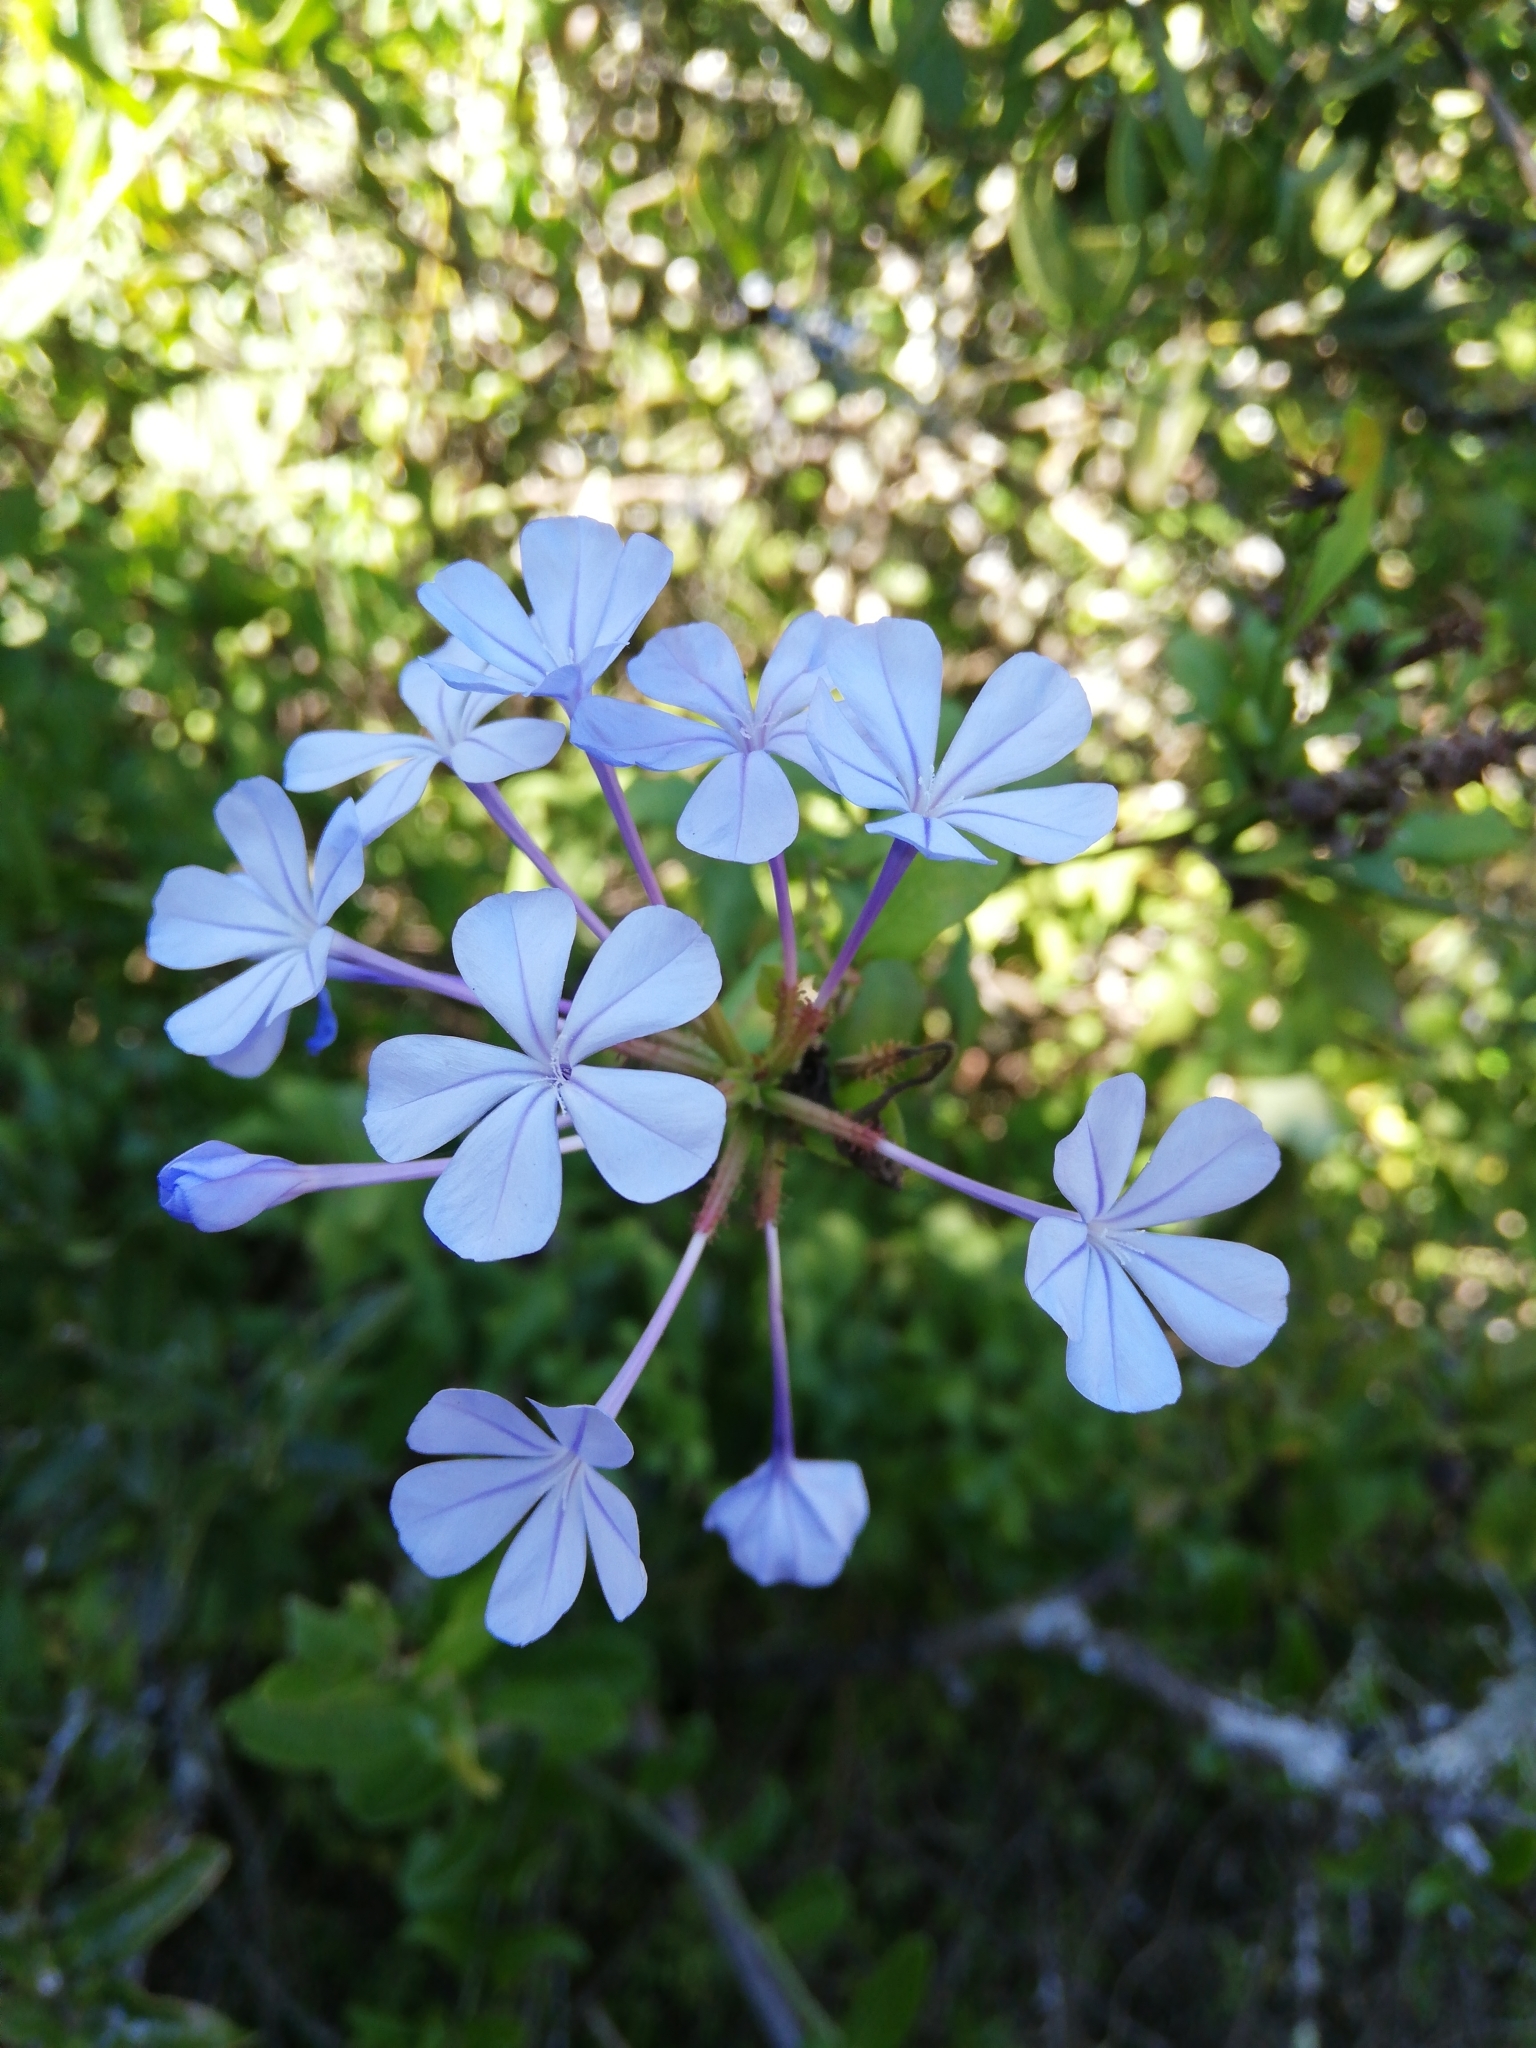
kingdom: Plantae
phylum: Tracheophyta
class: Magnoliopsida
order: Caryophyllales
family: Plumbaginaceae
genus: Plumbago
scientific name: Plumbago auriculata
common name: Cape leadwort
